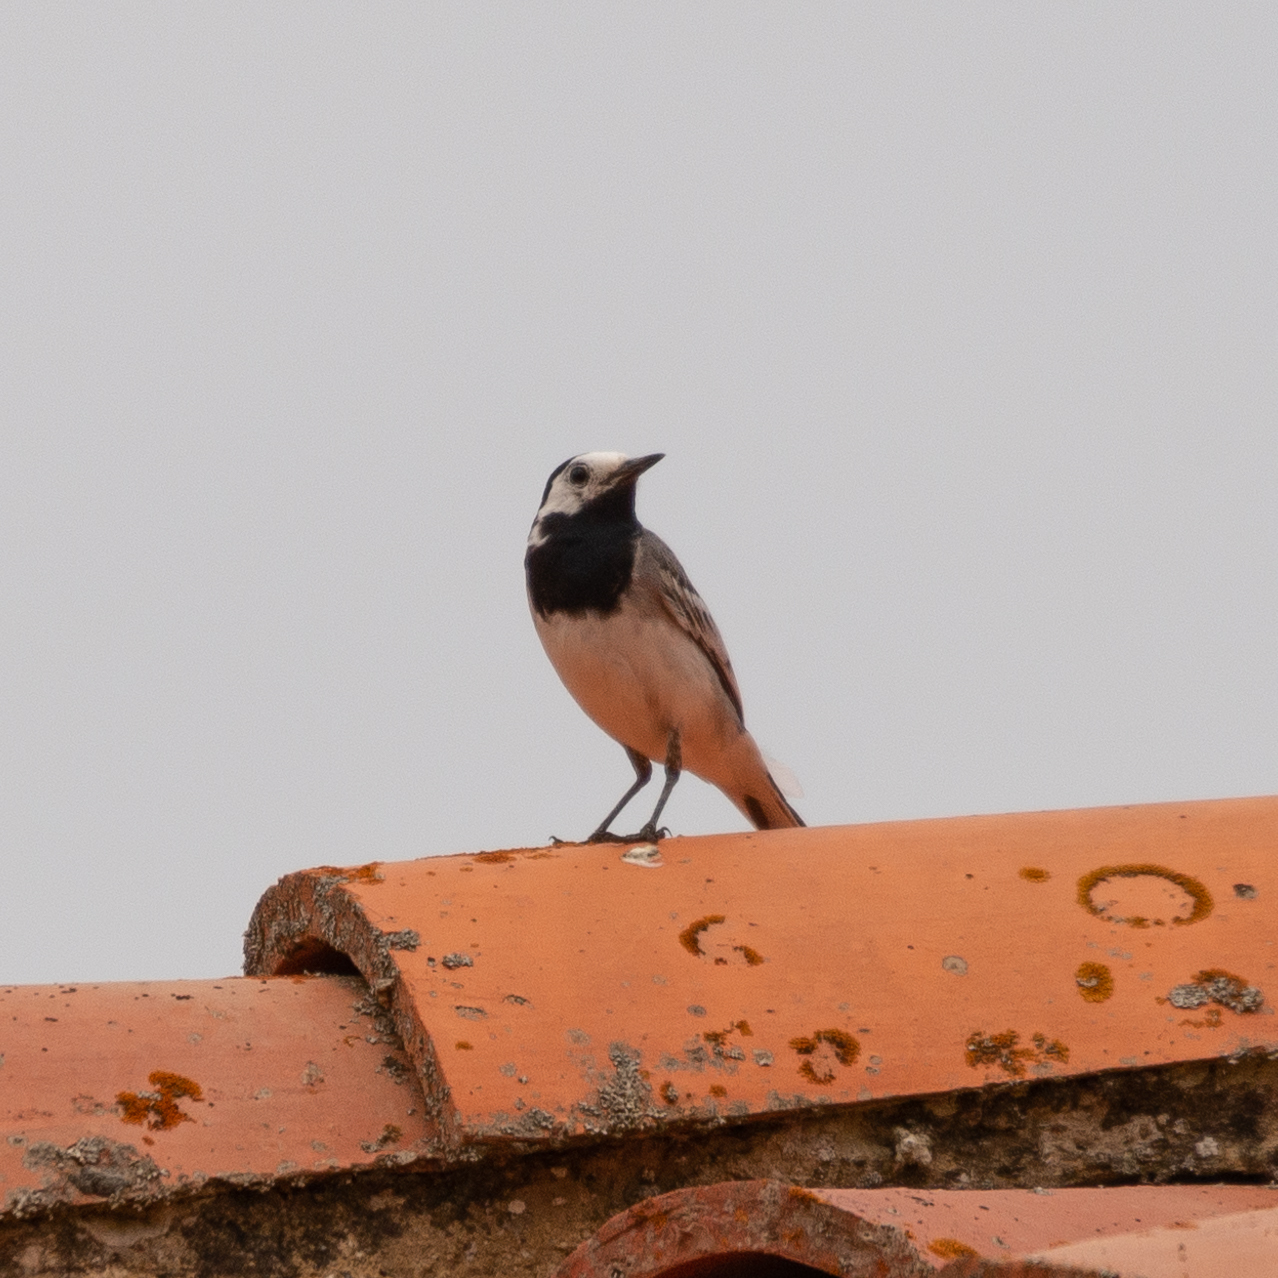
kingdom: Animalia
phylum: Chordata
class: Aves
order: Passeriformes
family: Motacillidae
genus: Motacilla
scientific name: Motacilla alba
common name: White wagtail
